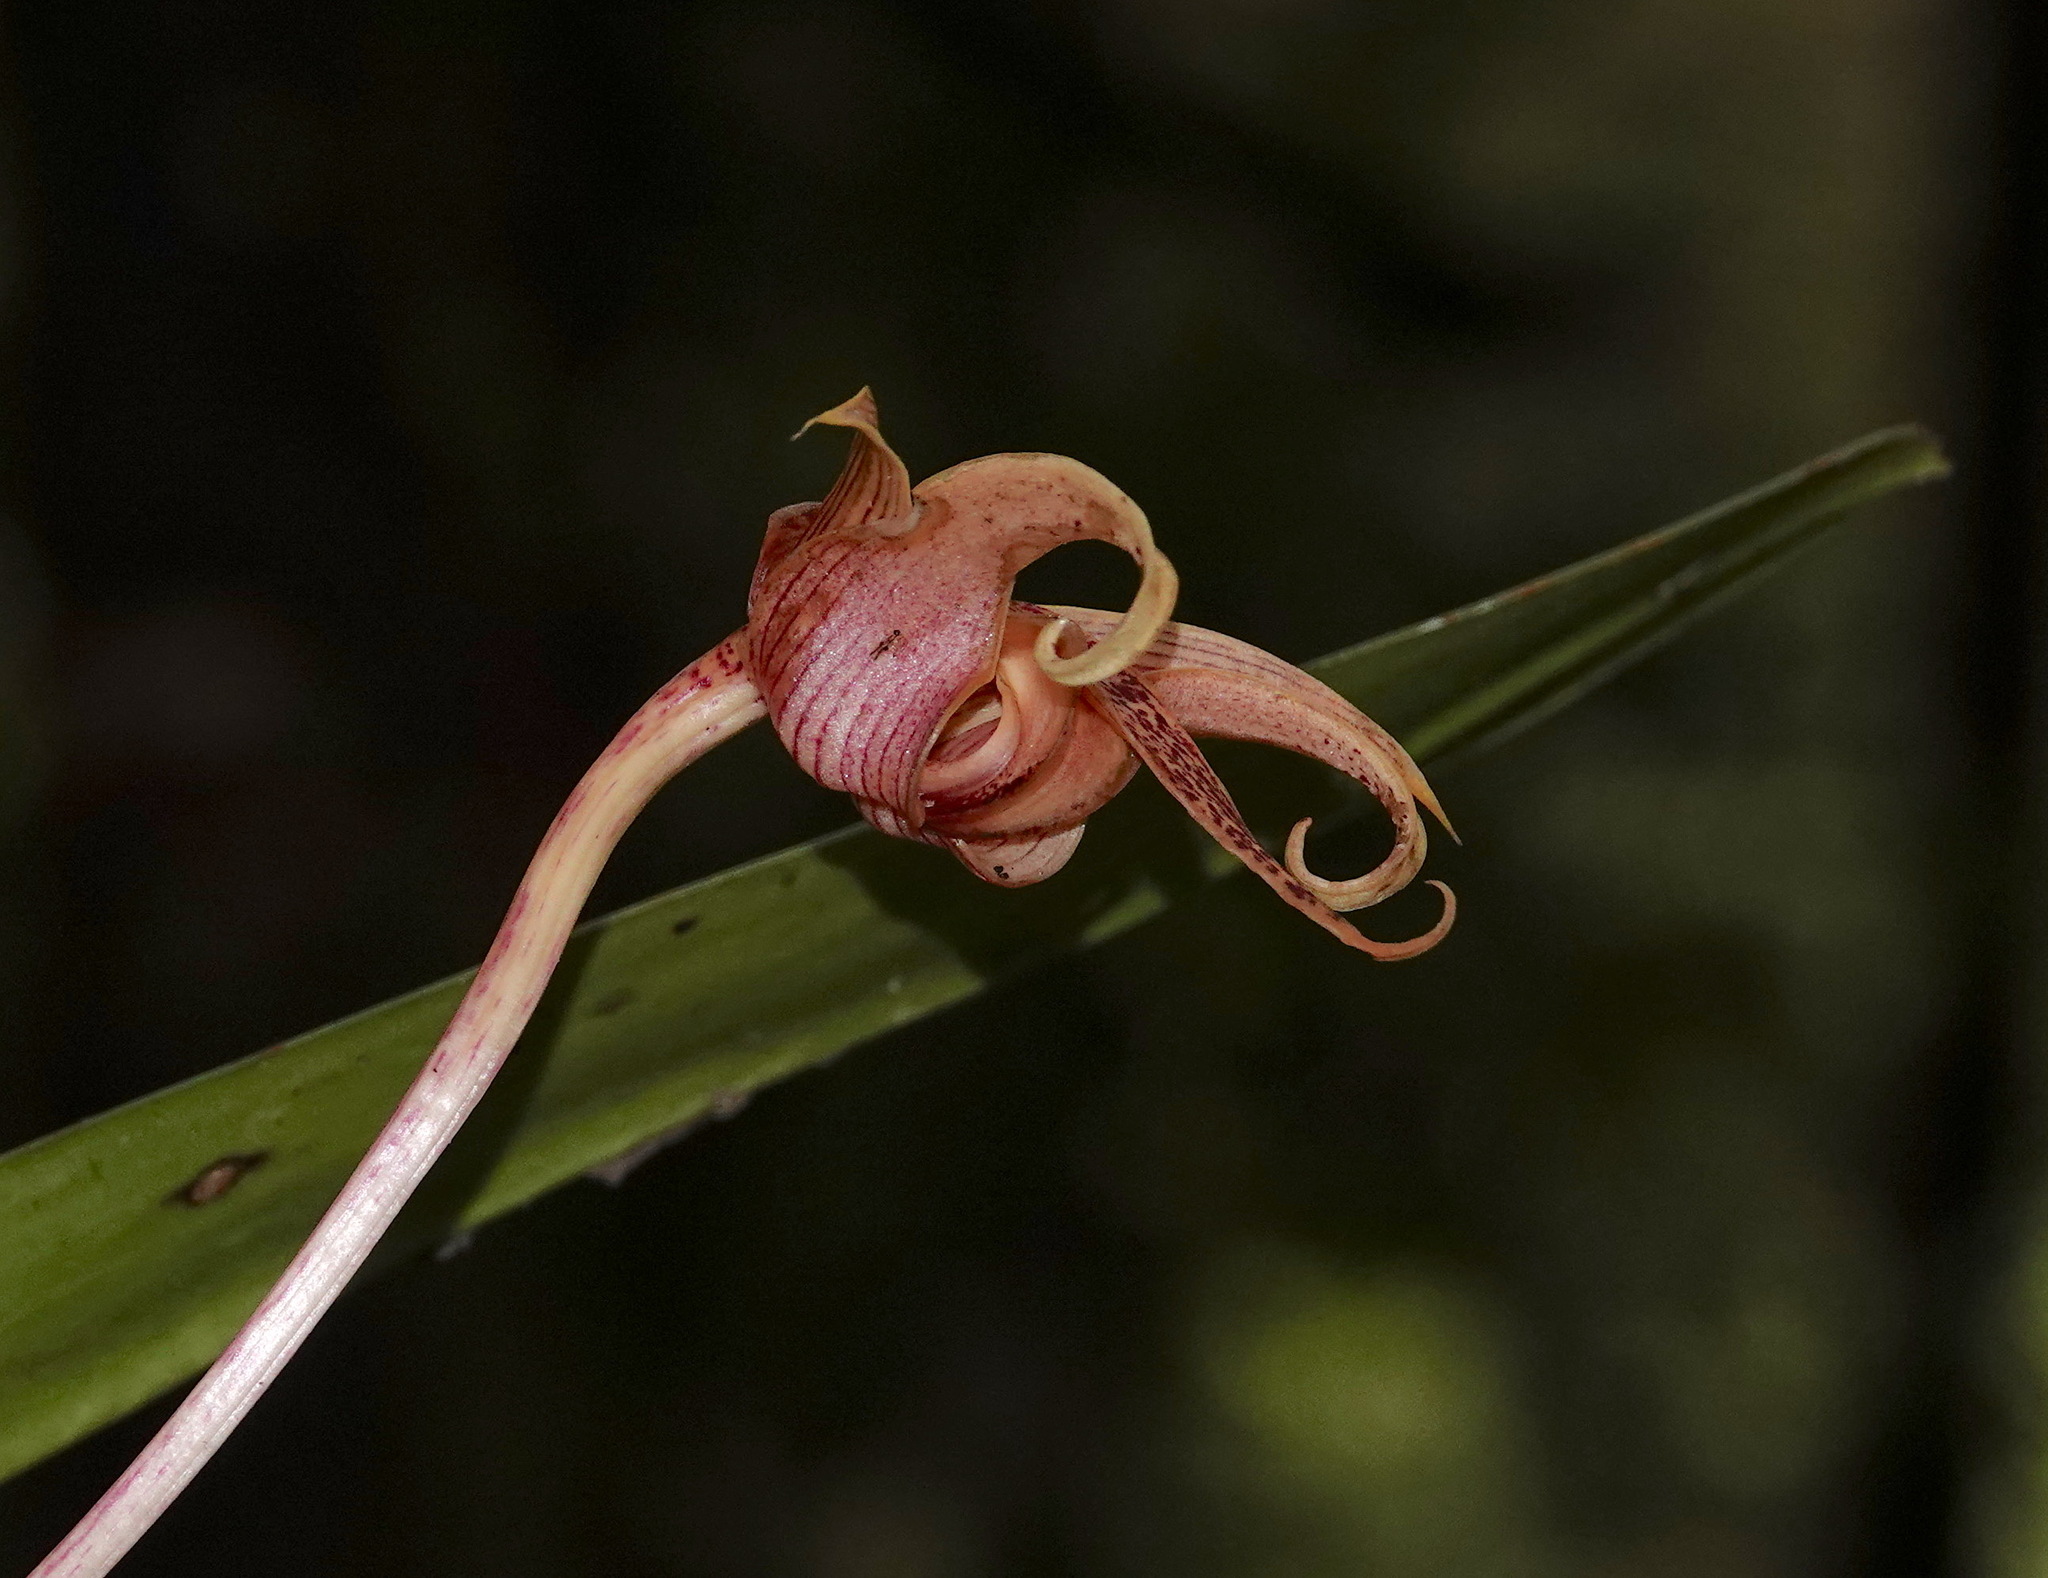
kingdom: Plantae
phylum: Tracheophyta
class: Liliopsida
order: Asparagales
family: Orchidaceae
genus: Bulbophyllum
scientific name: Bulbophyllum lobbii
